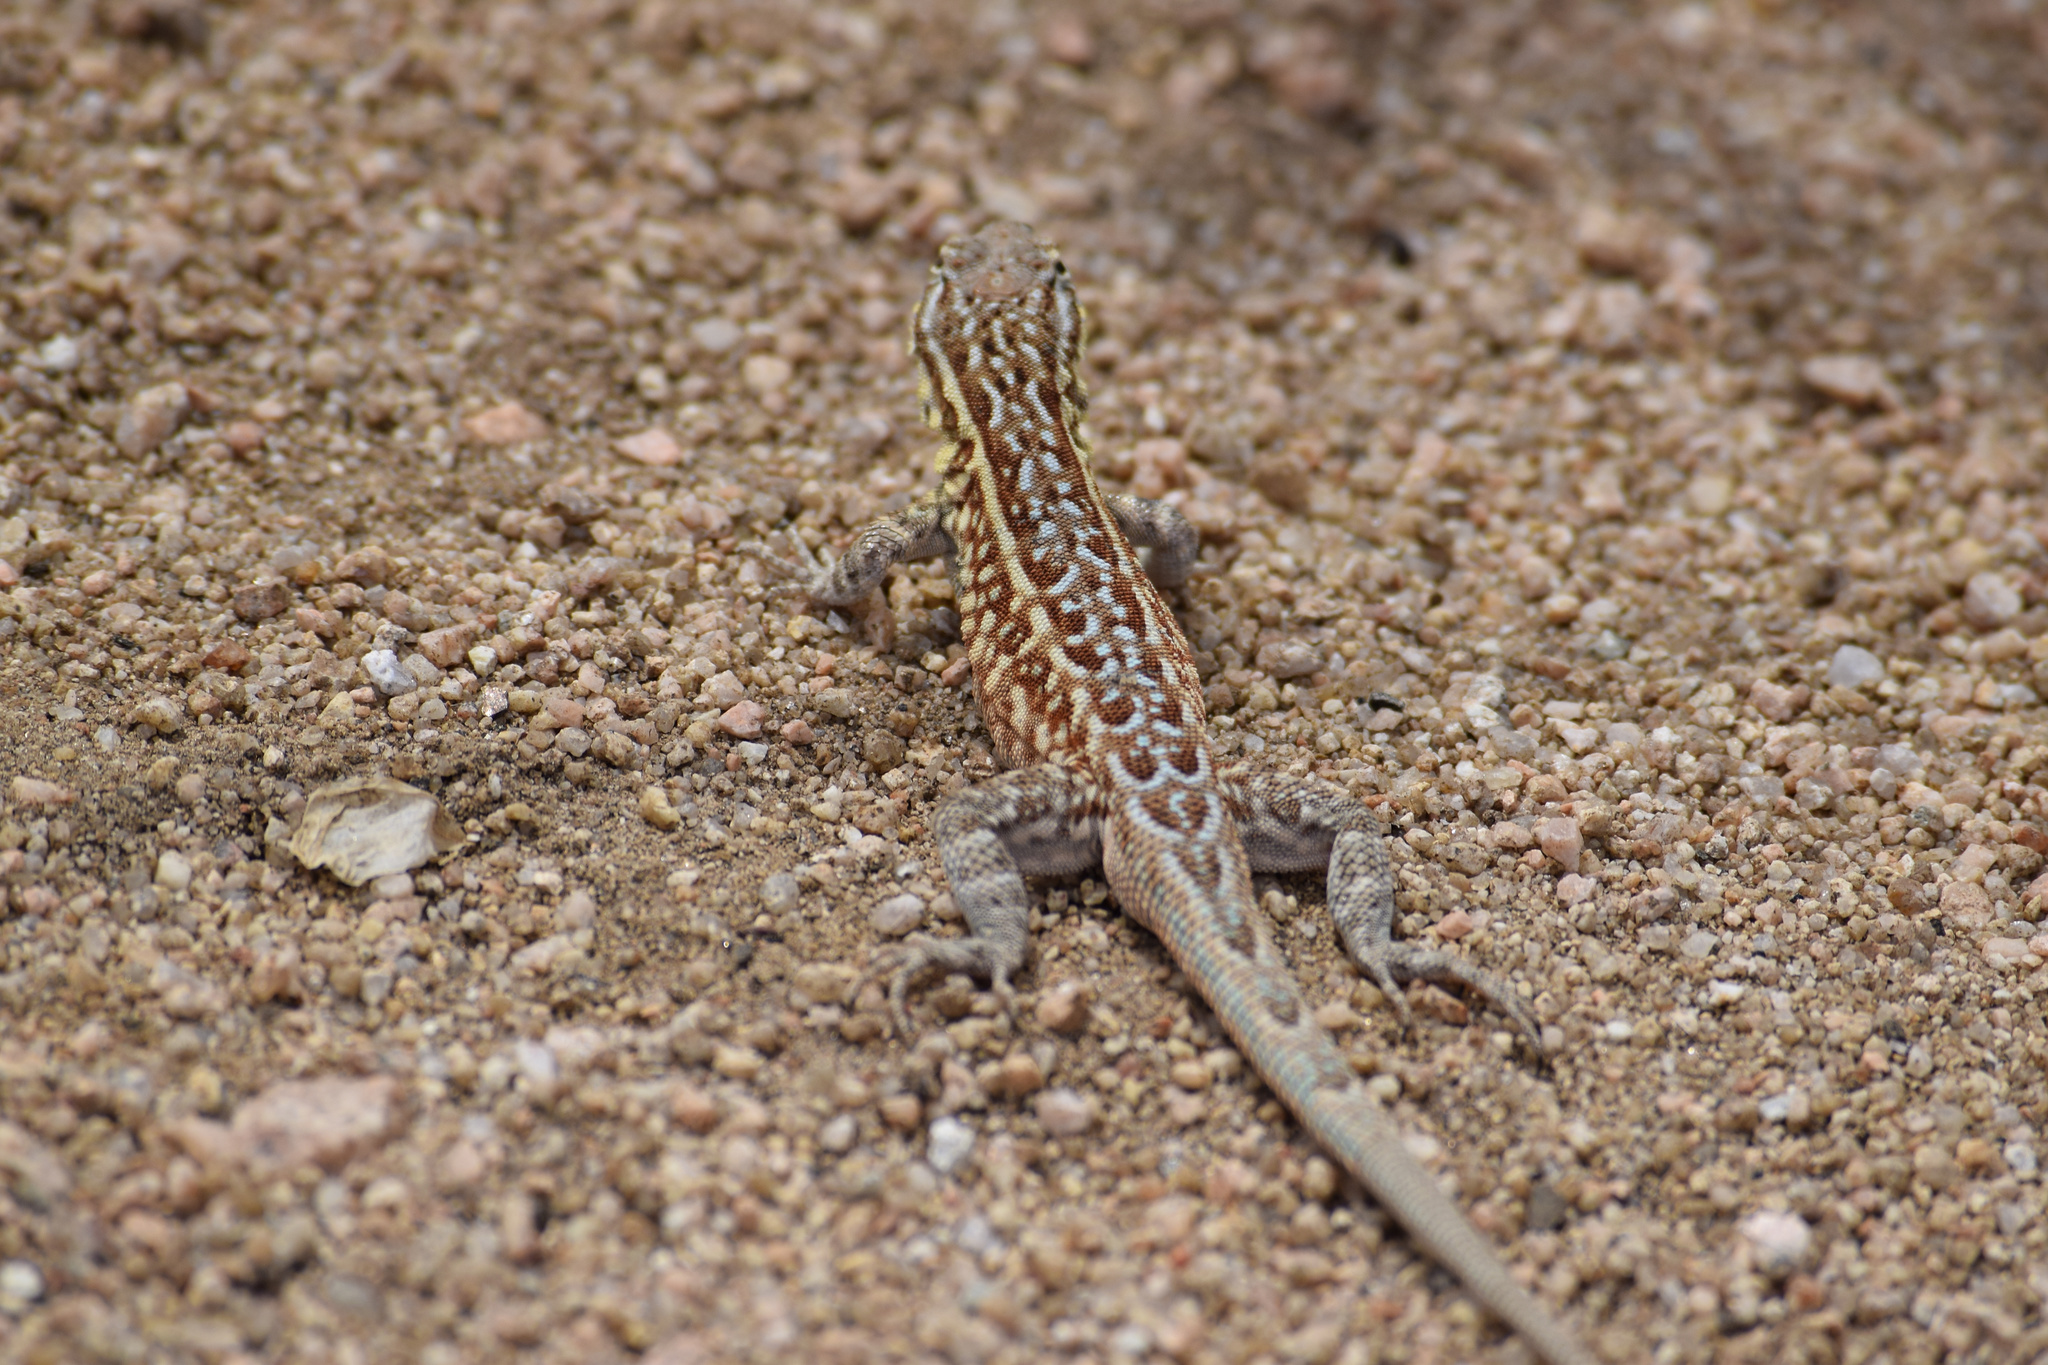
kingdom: Animalia
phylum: Chordata
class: Squamata
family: Phrynosomatidae
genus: Uta
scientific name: Uta stansburiana
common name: Side-blotched lizard
